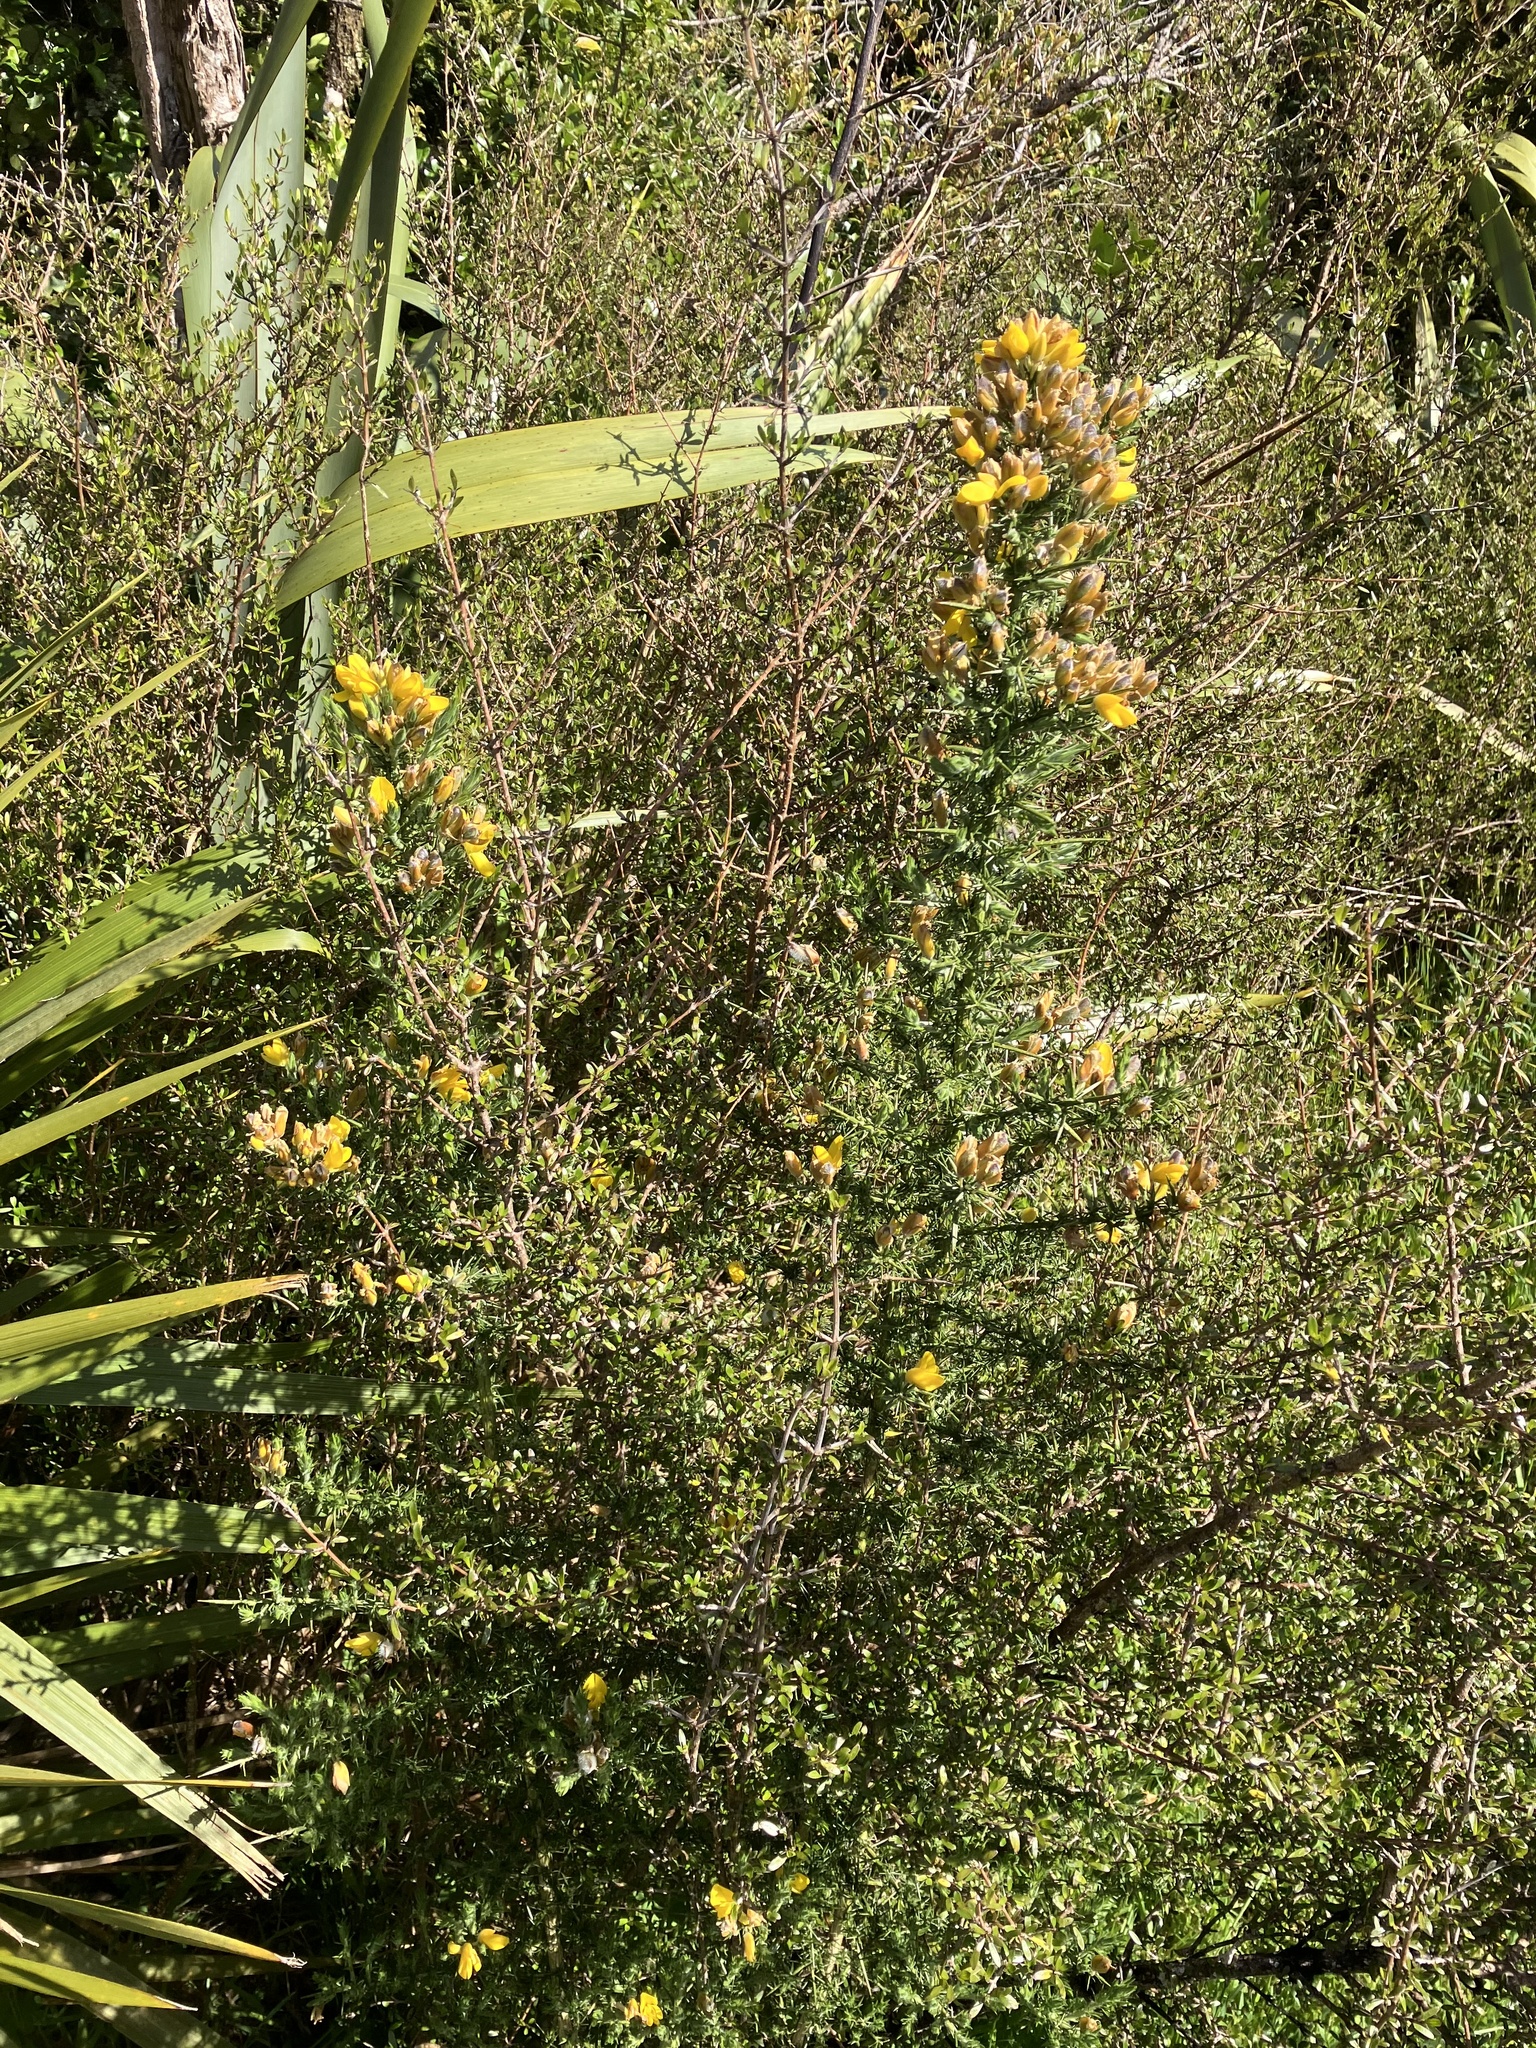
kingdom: Plantae
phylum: Tracheophyta
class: Magnoliopsida
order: Fabales
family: Fabaceae
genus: Ulex
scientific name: Ulex europaeus
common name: Common gorse
